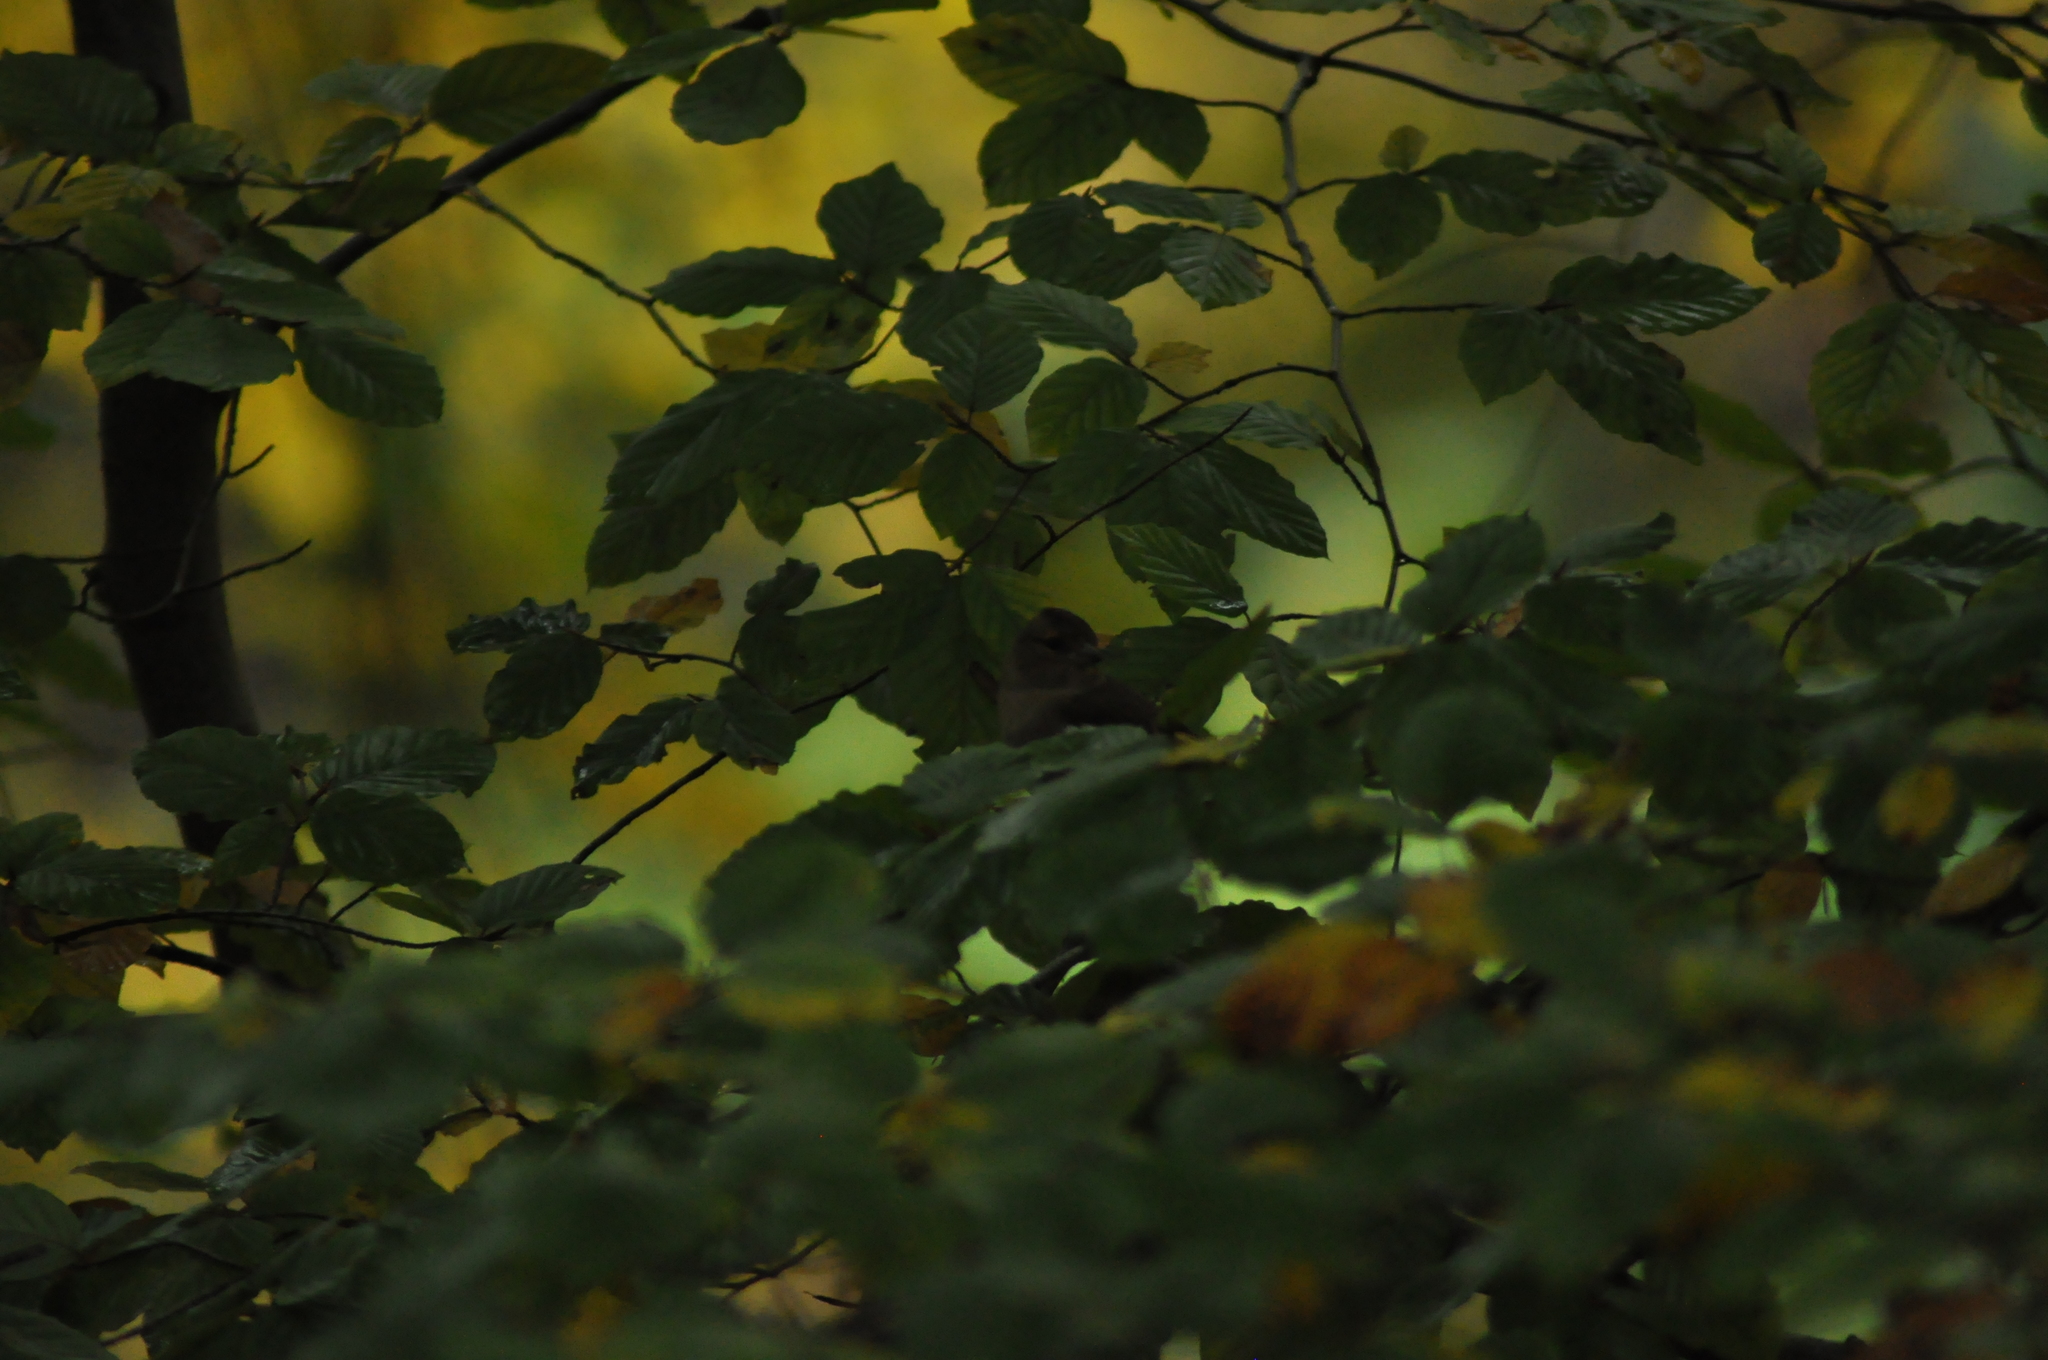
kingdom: Animalia
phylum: Chordata
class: Aves
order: Passeriformes
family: Fringillidae
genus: Fringilla
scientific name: Fringilla coelebs
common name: Common chaffinch
